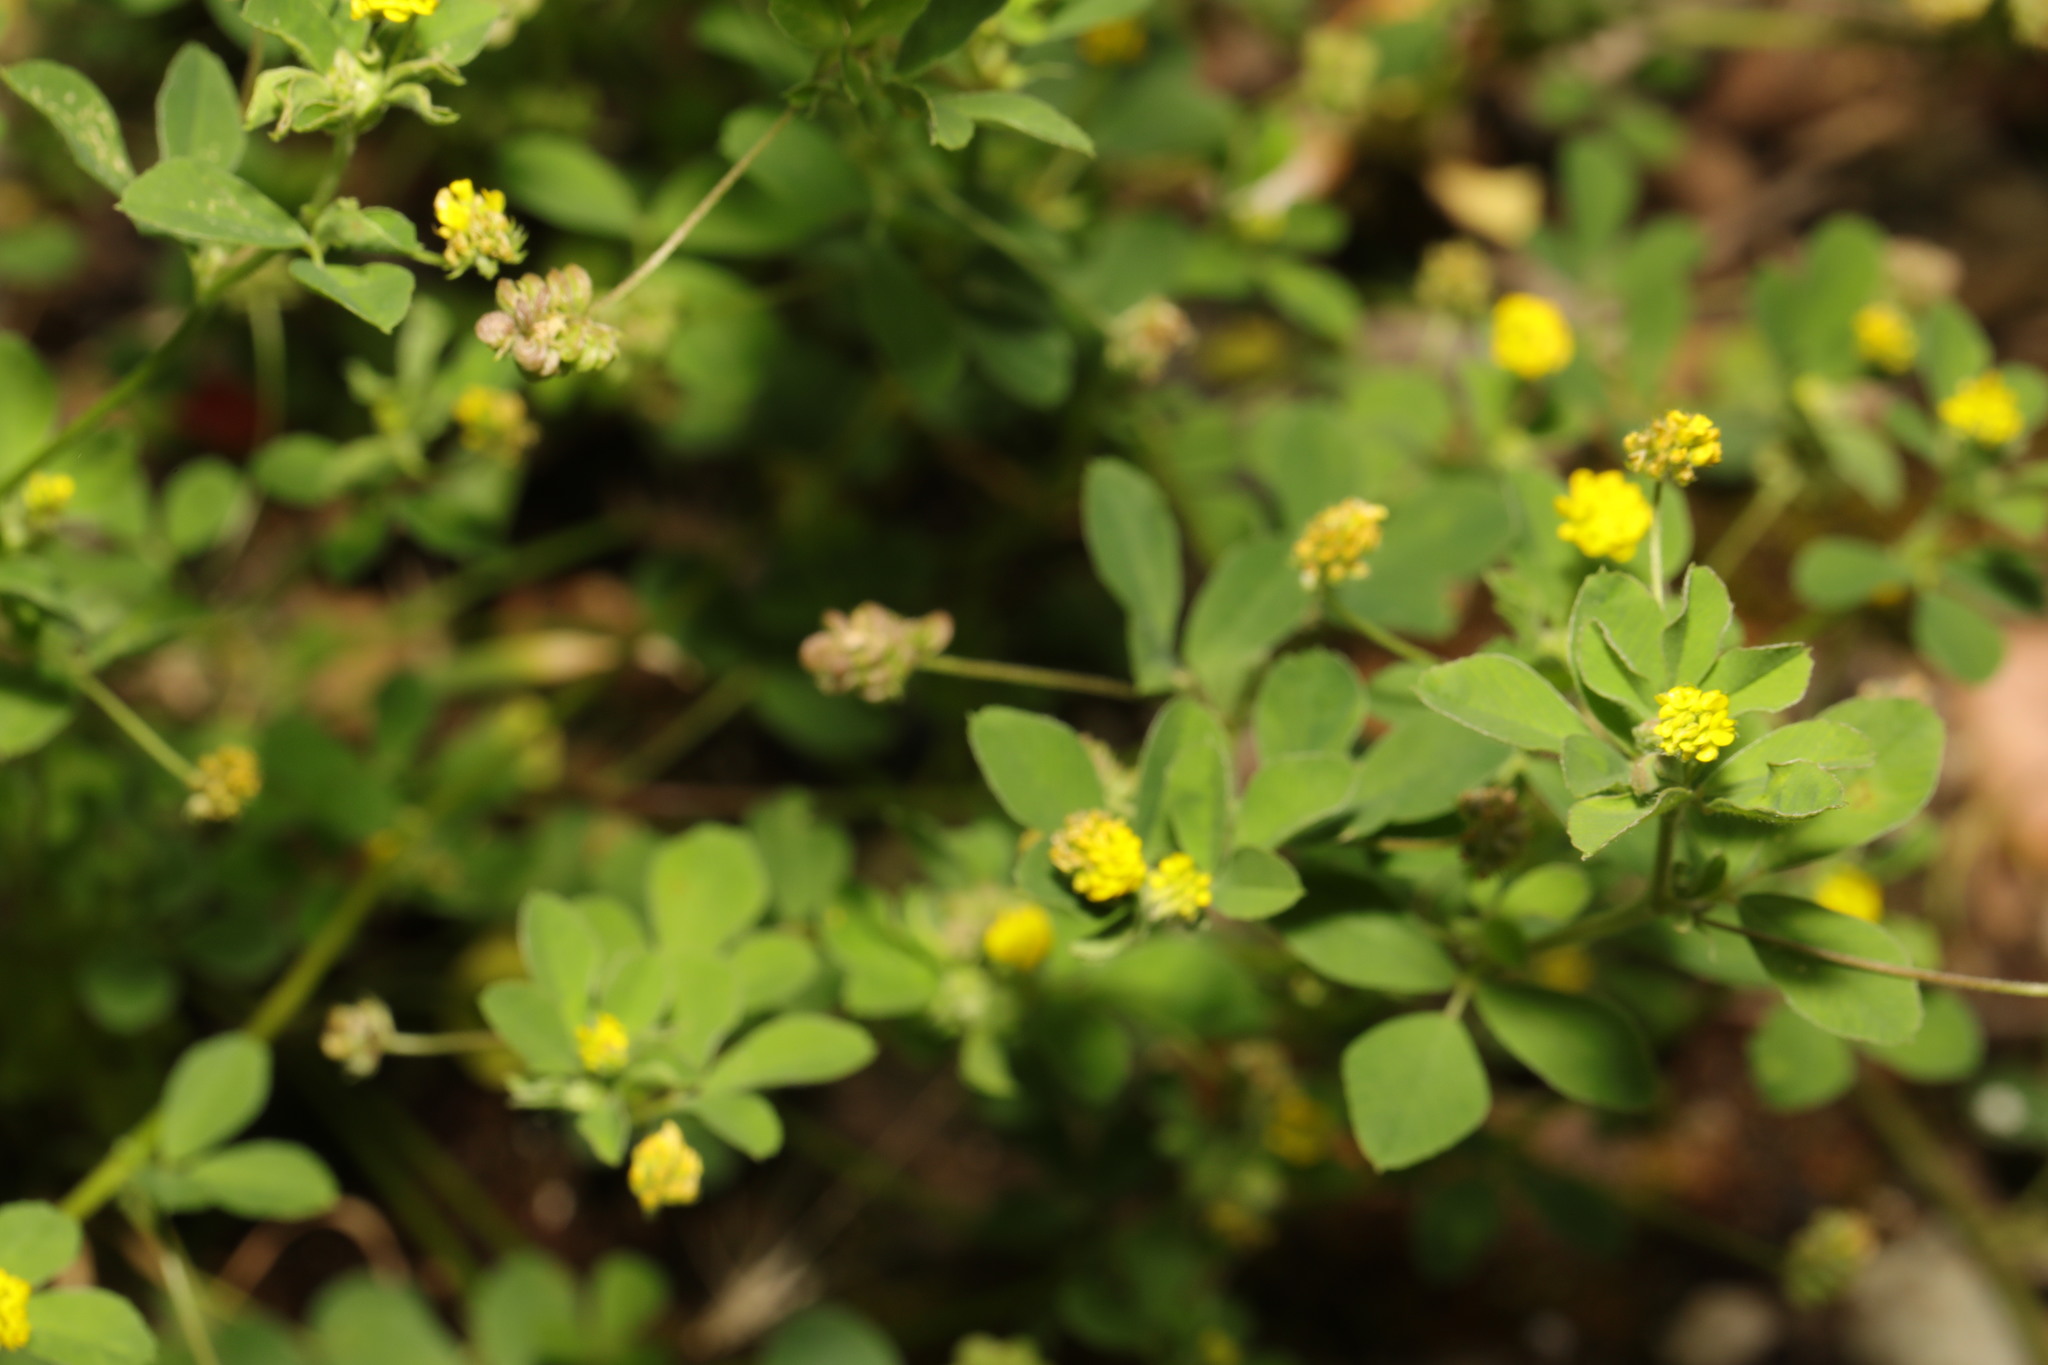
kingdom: Plantae
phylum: Tracheophyta
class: Magnoliopsida
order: Fabales
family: Fabaceae
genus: Medicago
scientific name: Medicago lupulina
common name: Black medick
